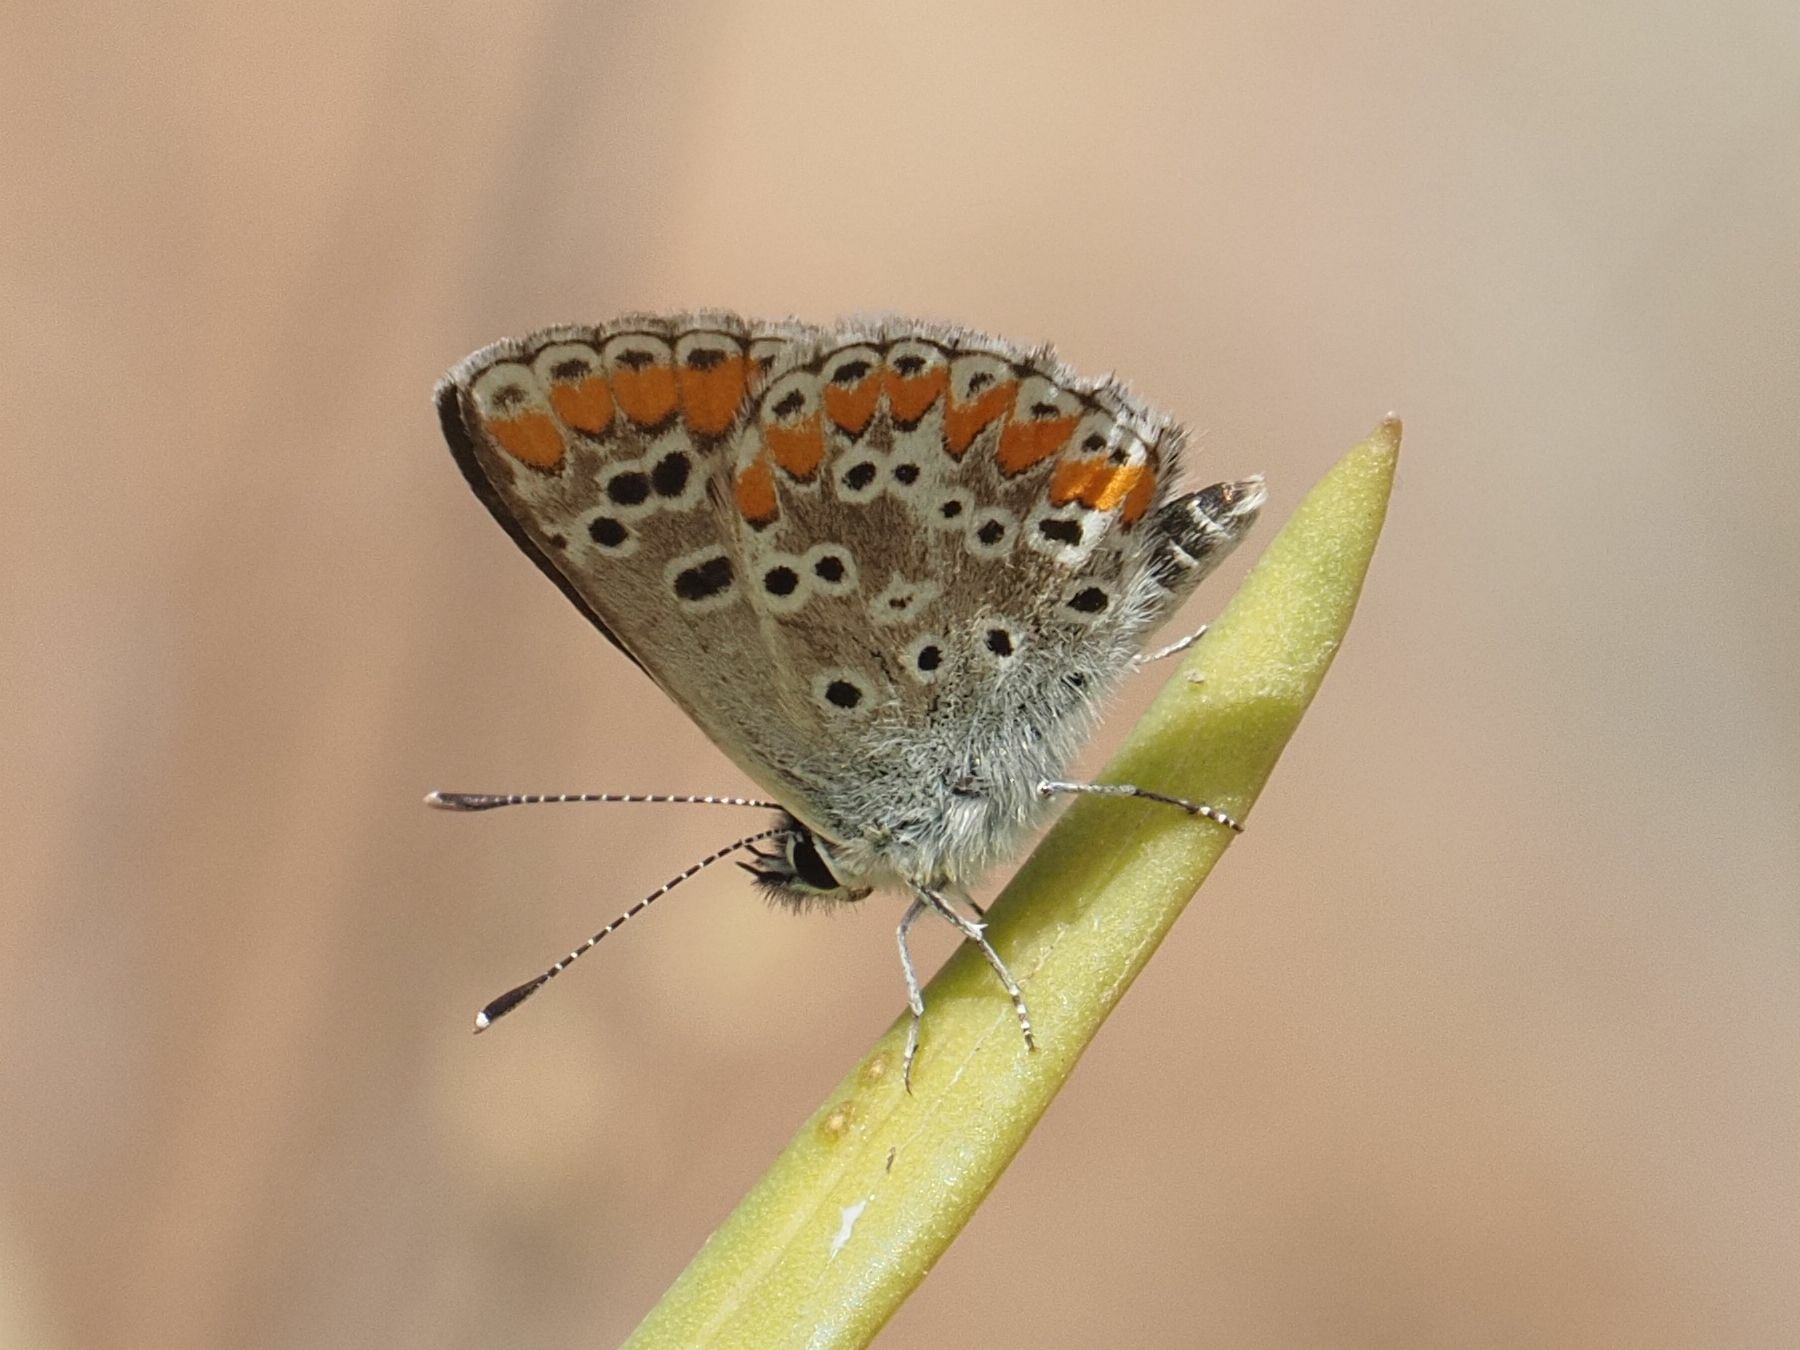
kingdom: Animalia
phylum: Arthropoda
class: Insecta
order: Lepidoptera
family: Lycaenidae
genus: Aricia
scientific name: Aricia cramera
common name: Eschscholtz´s brown  argus
